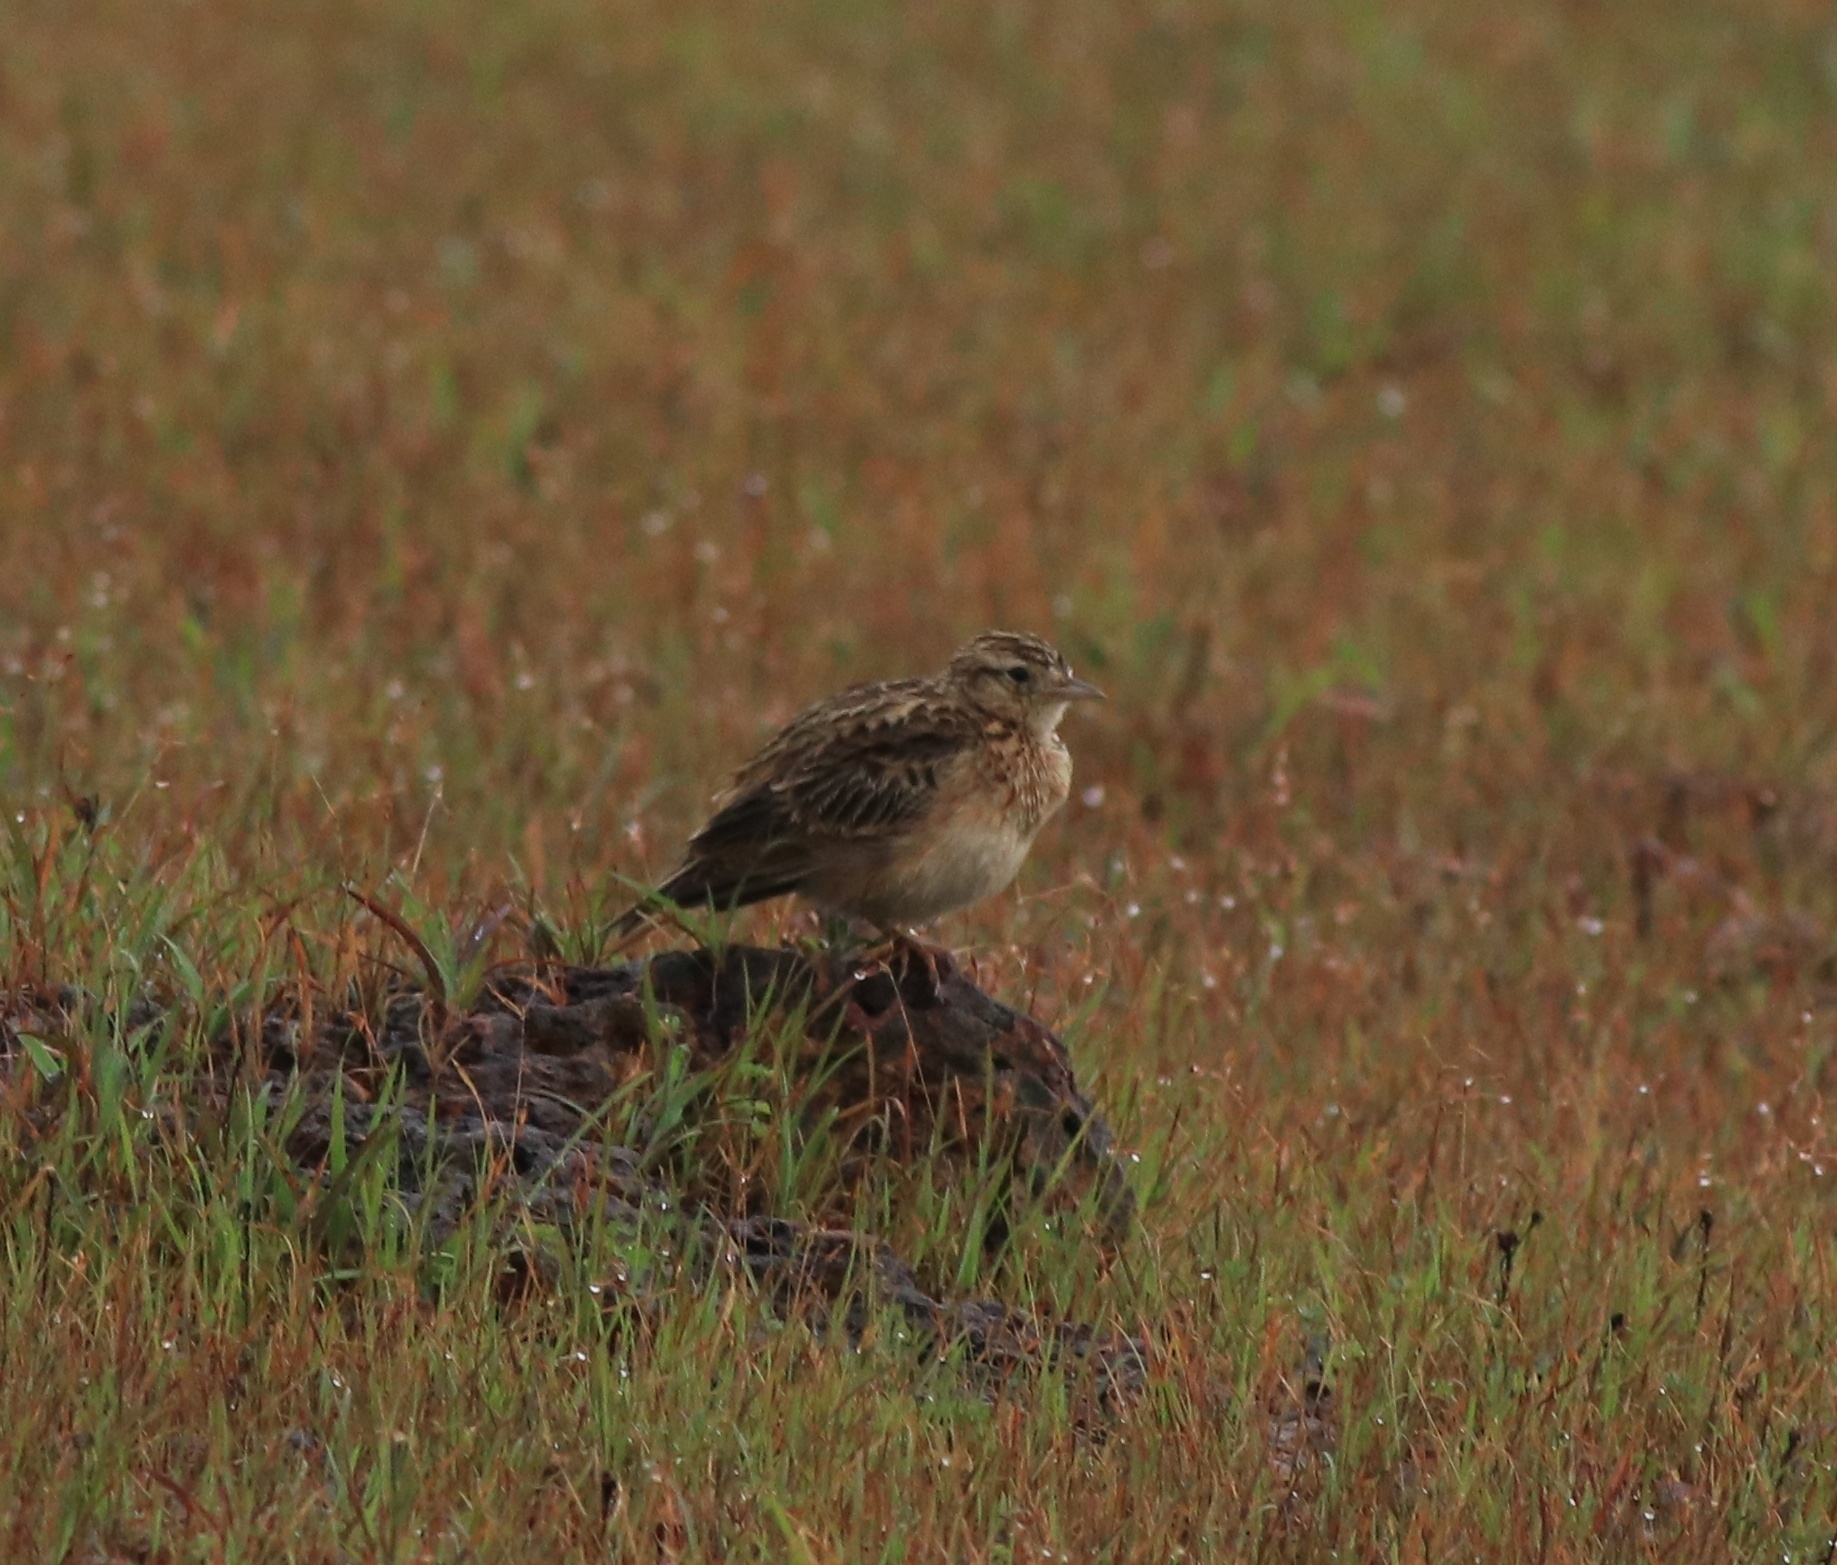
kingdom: Animalia
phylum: Chordata
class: Aves
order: Passeriformes
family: Alaudidae
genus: Alauda
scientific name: Alauda gulgula
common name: Oriental skylark
